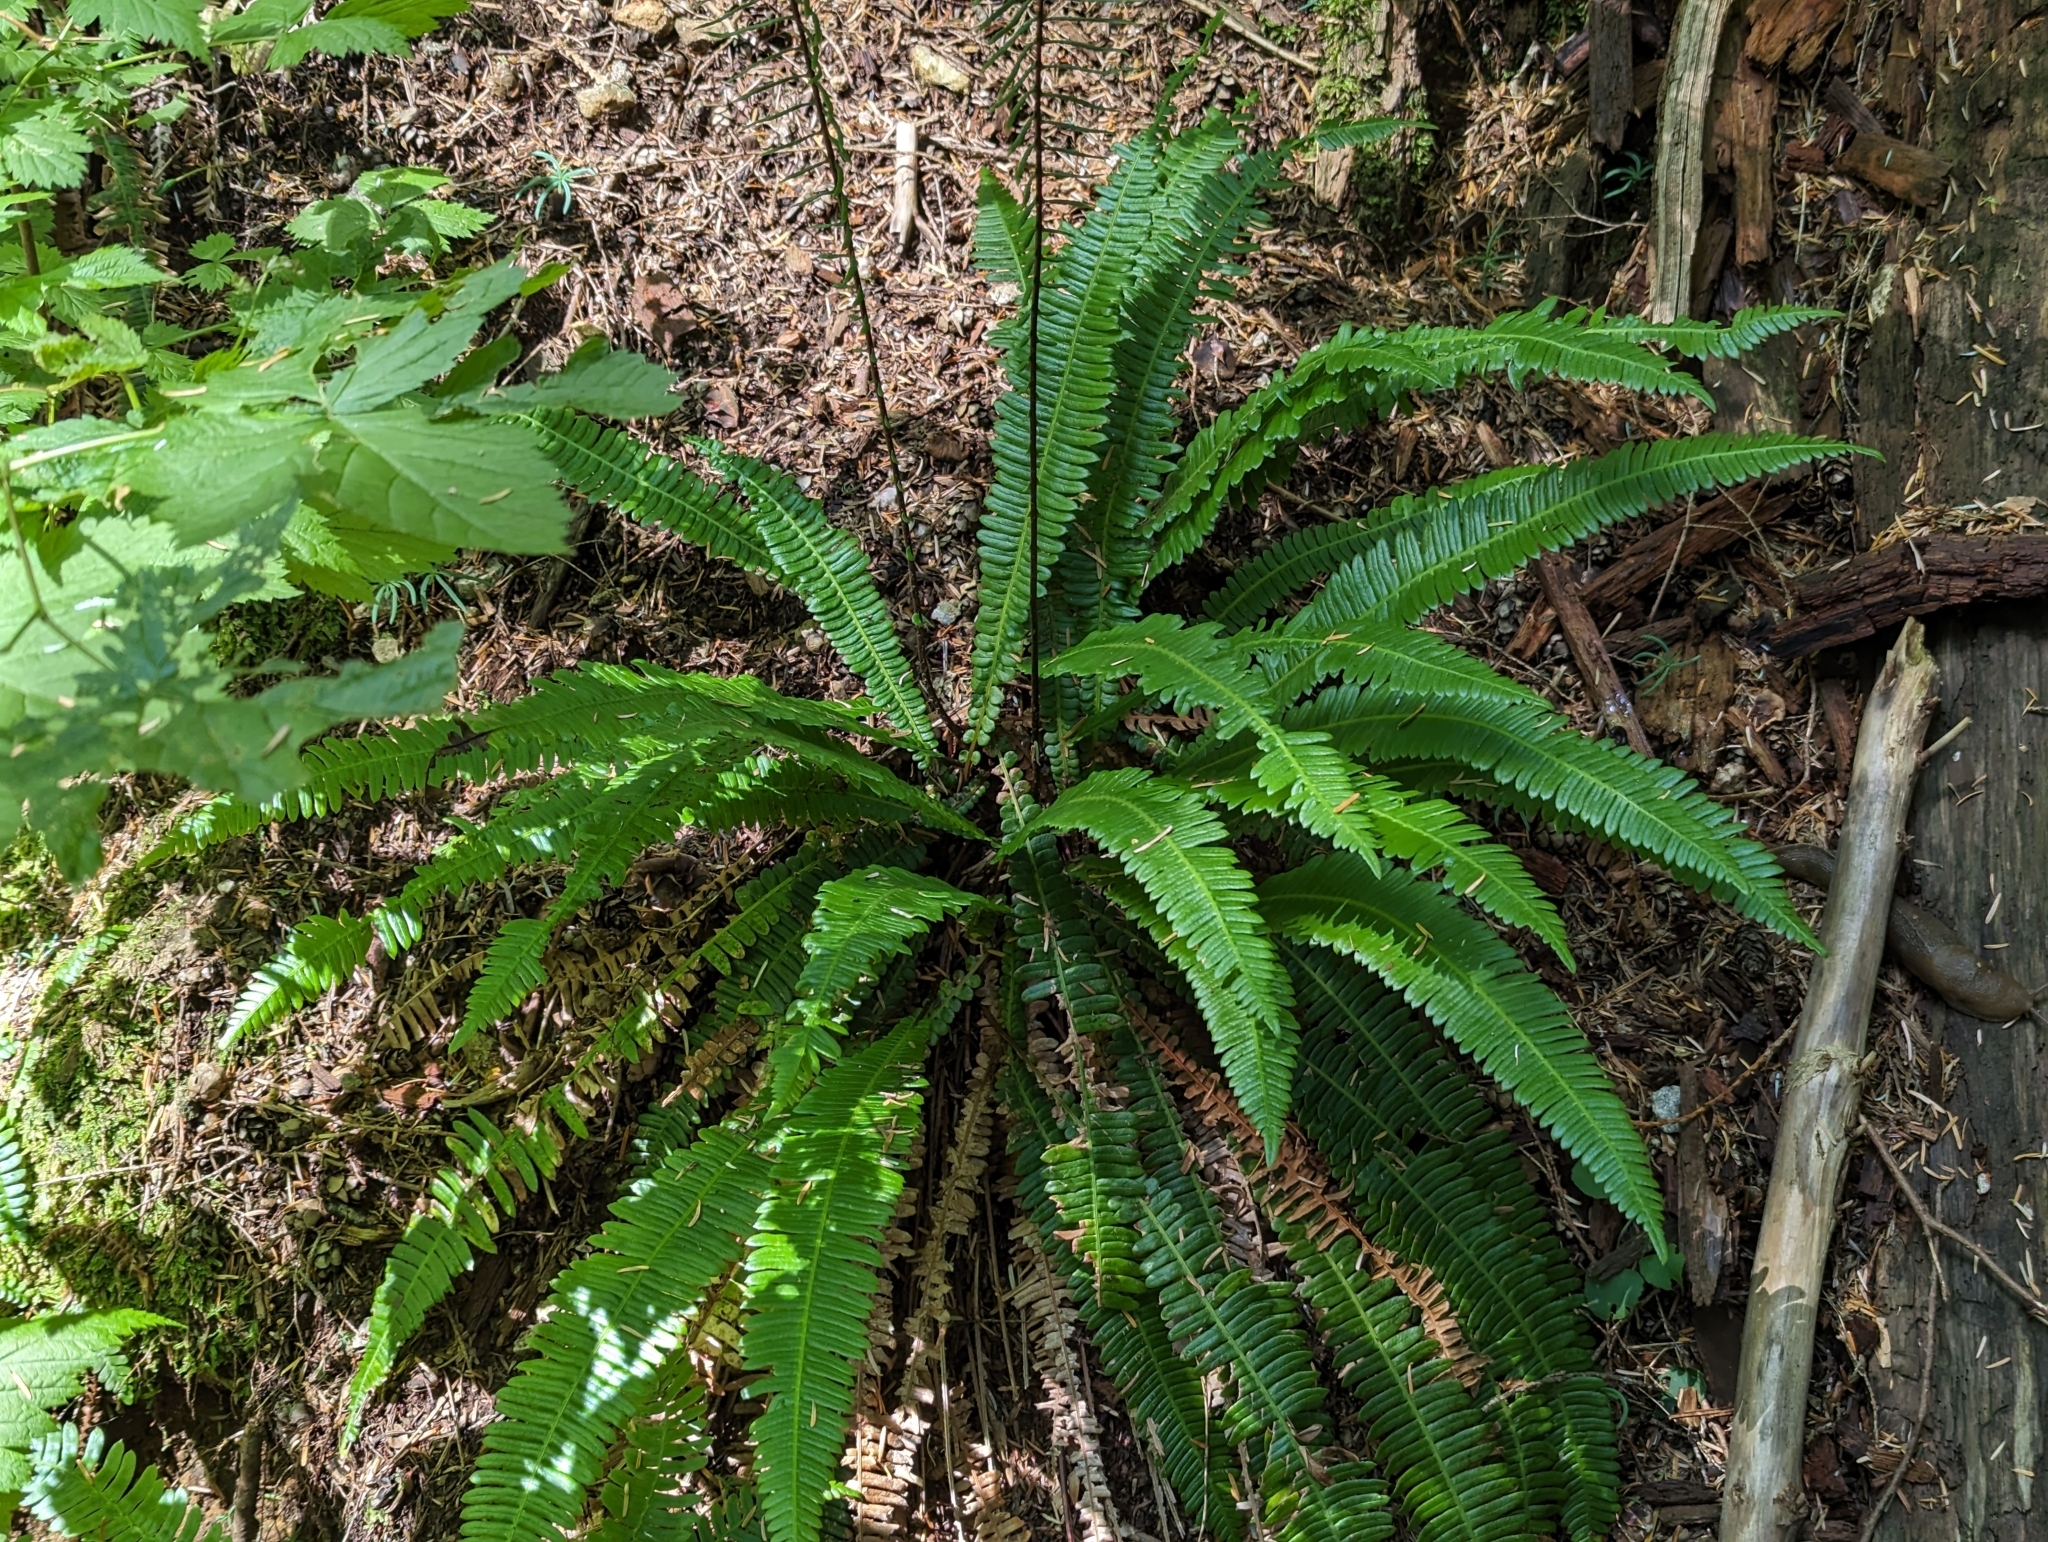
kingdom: Plantae
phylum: Tracheophyta
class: Polypodiopsida
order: Polypodiales
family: Blechnaceae
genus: Struthiopteris
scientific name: Struthiopteris spicant
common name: Deer fern
